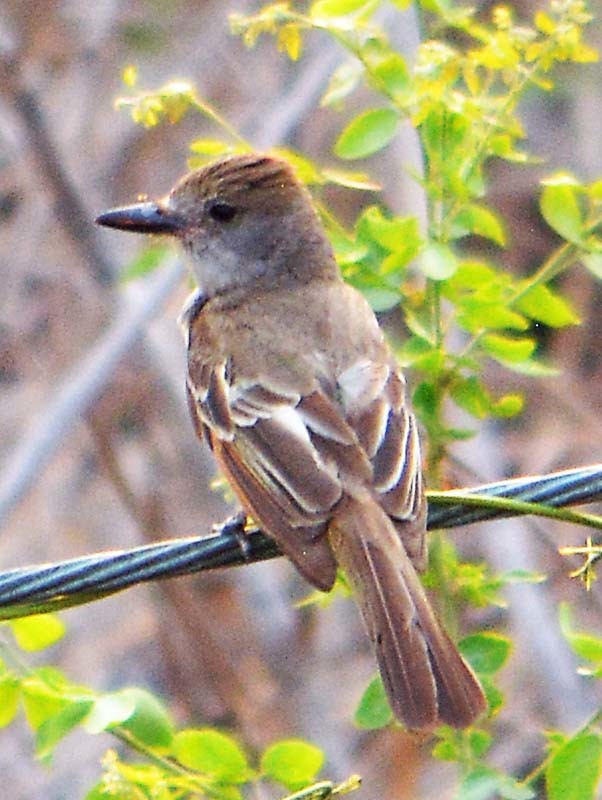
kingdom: Animalia
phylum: Chordata
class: Aves
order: Passeriformes
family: Tyrannidae
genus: Myiarchus
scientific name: Myiarchus tyrannulus
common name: Brown-crested flycatcher
